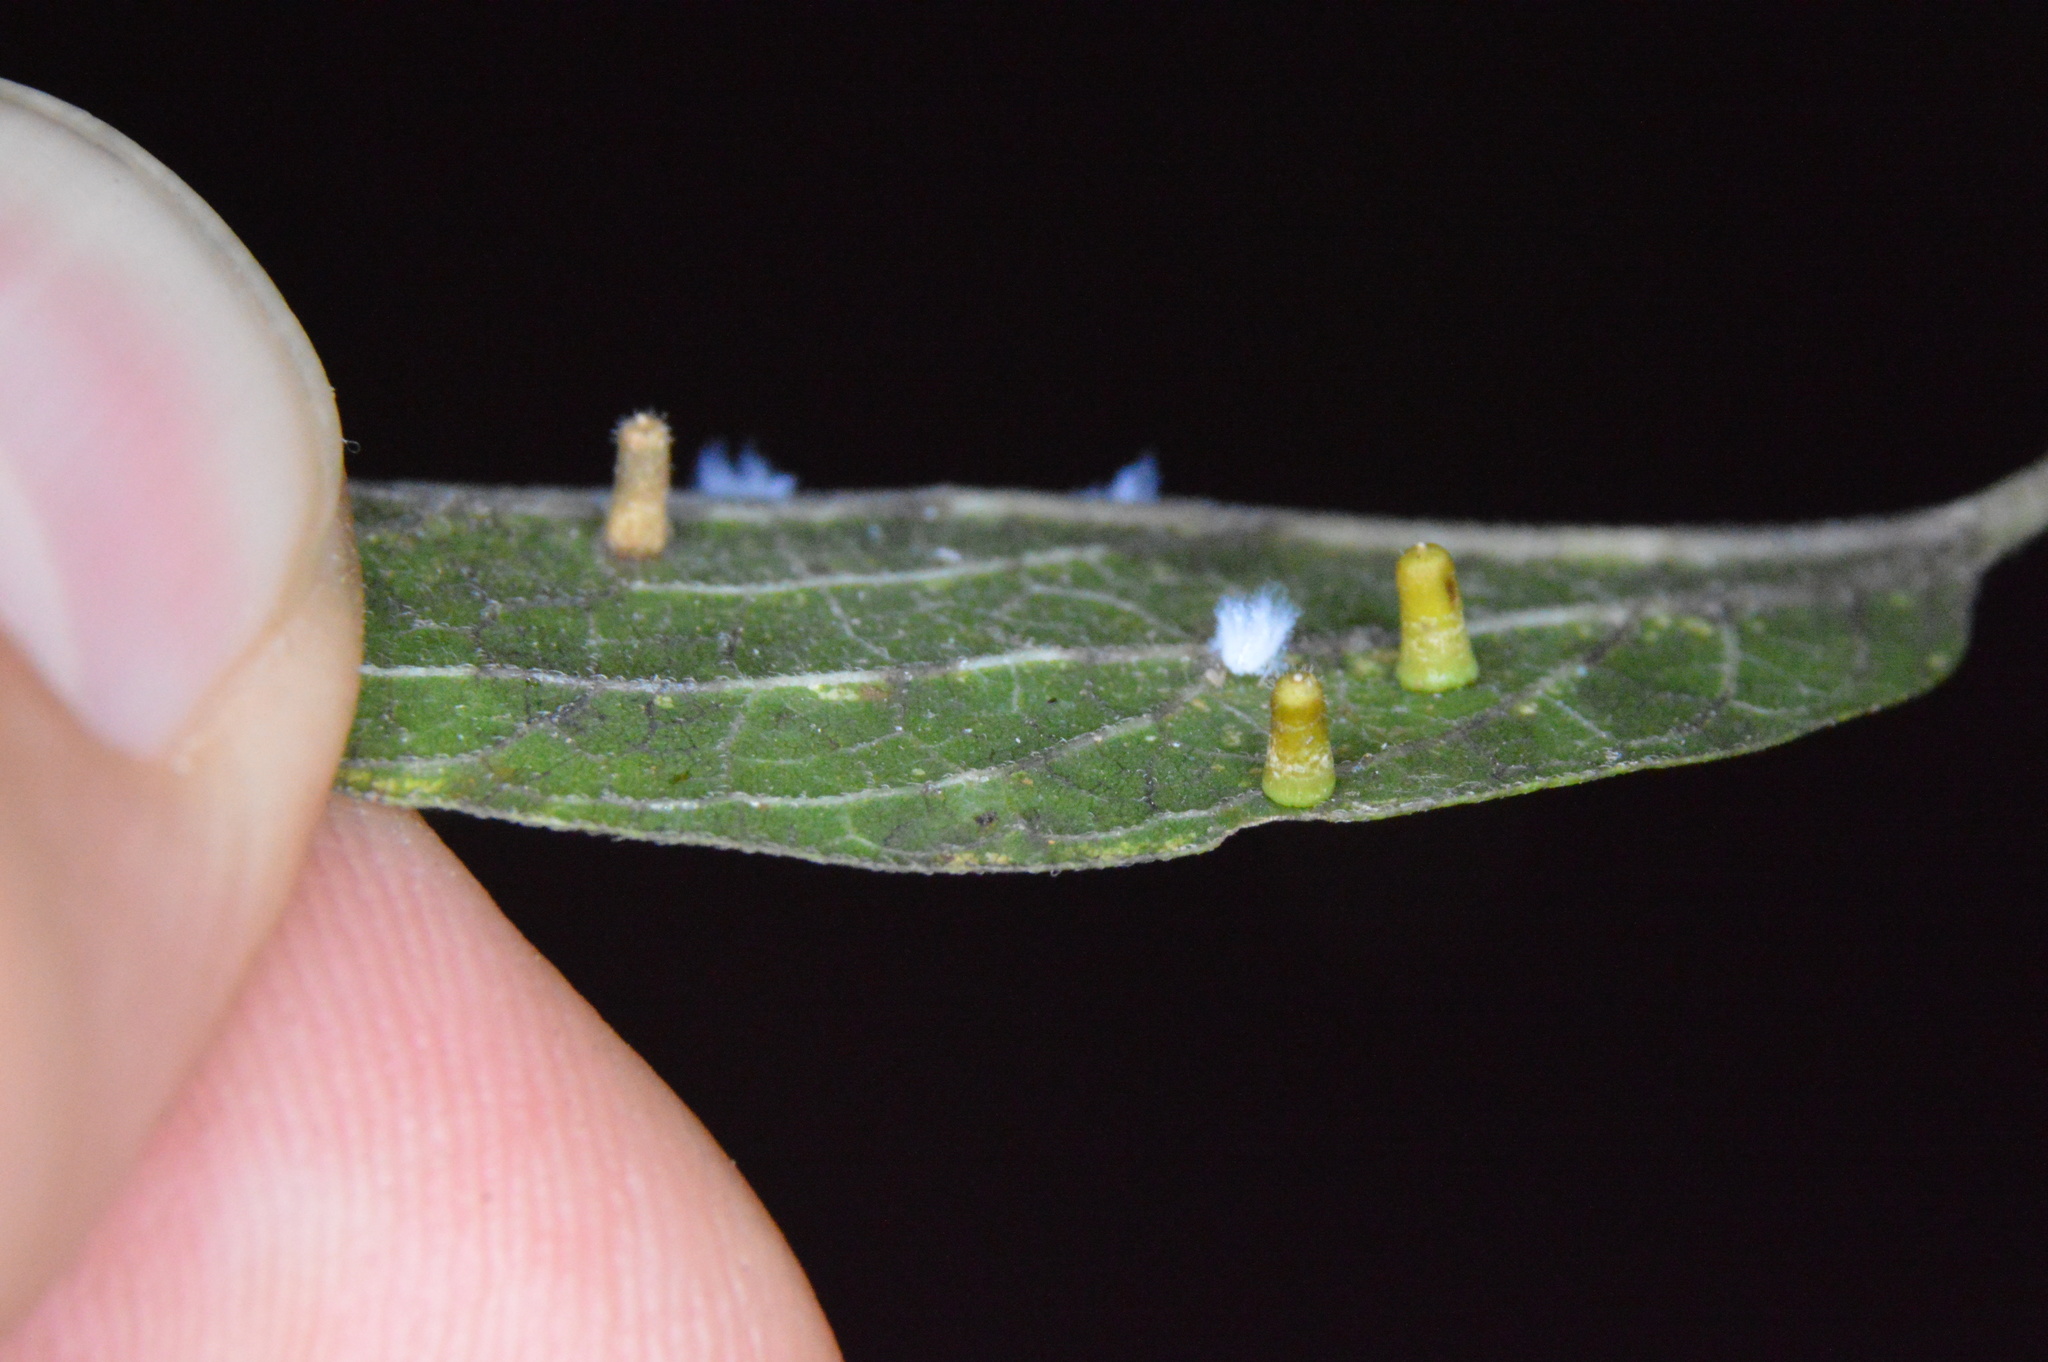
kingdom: Animalia
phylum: Arthropoda
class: Insecta
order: Diptera
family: Cecidomyiidae
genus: Celticecis
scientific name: Celticecis aciculata
